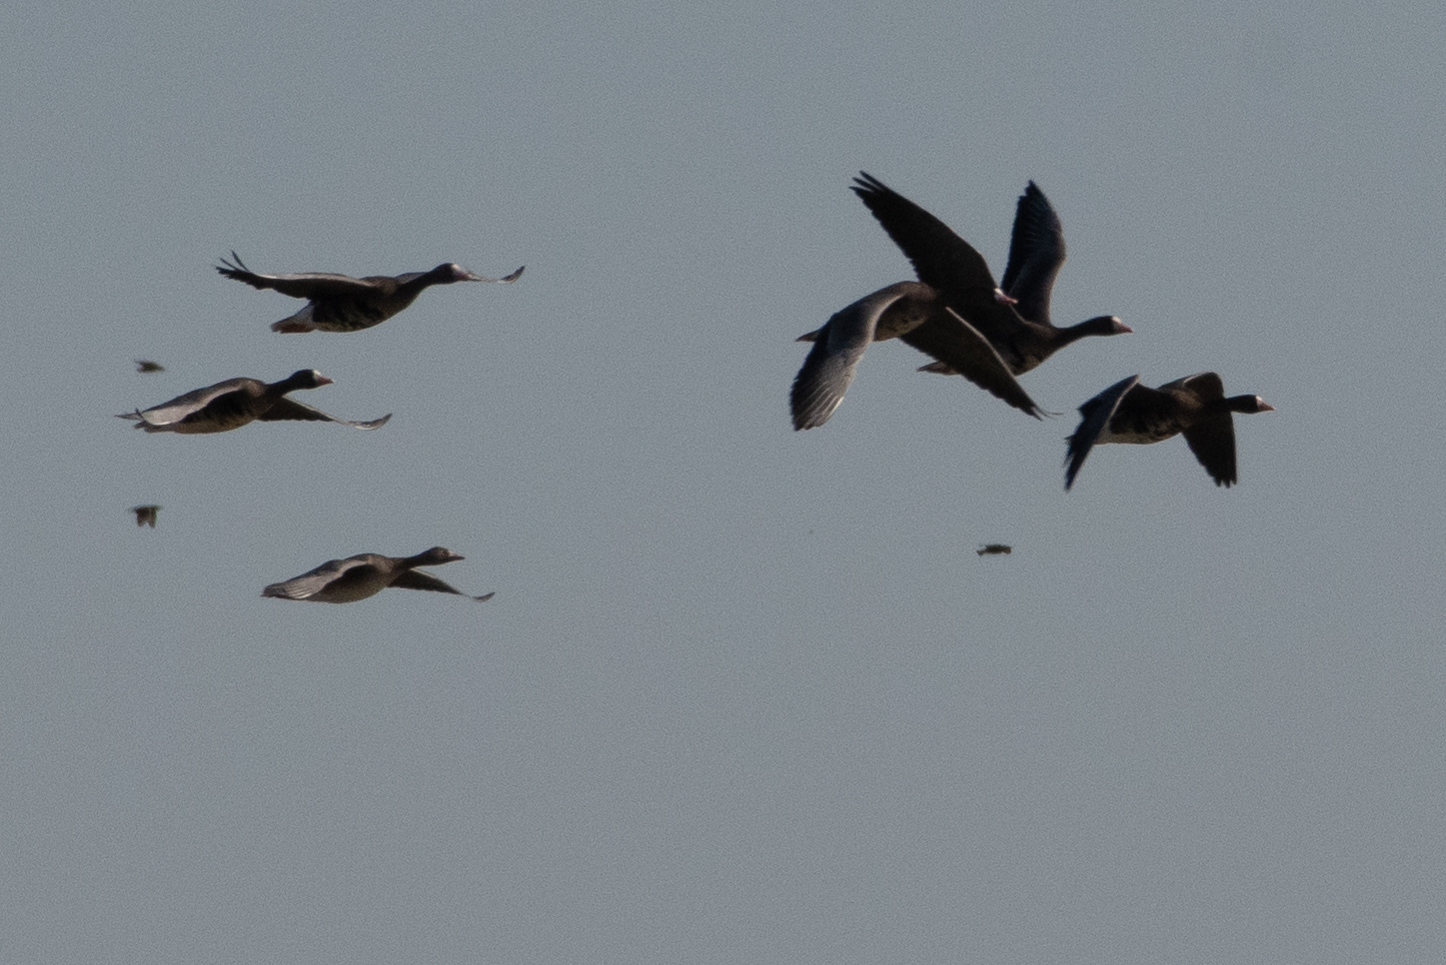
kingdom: Animalia
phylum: Chordata
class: Aves
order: Anseriformes
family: Anatidae
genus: Anser
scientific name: Anser albifrons
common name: Greater white-fronted goose
